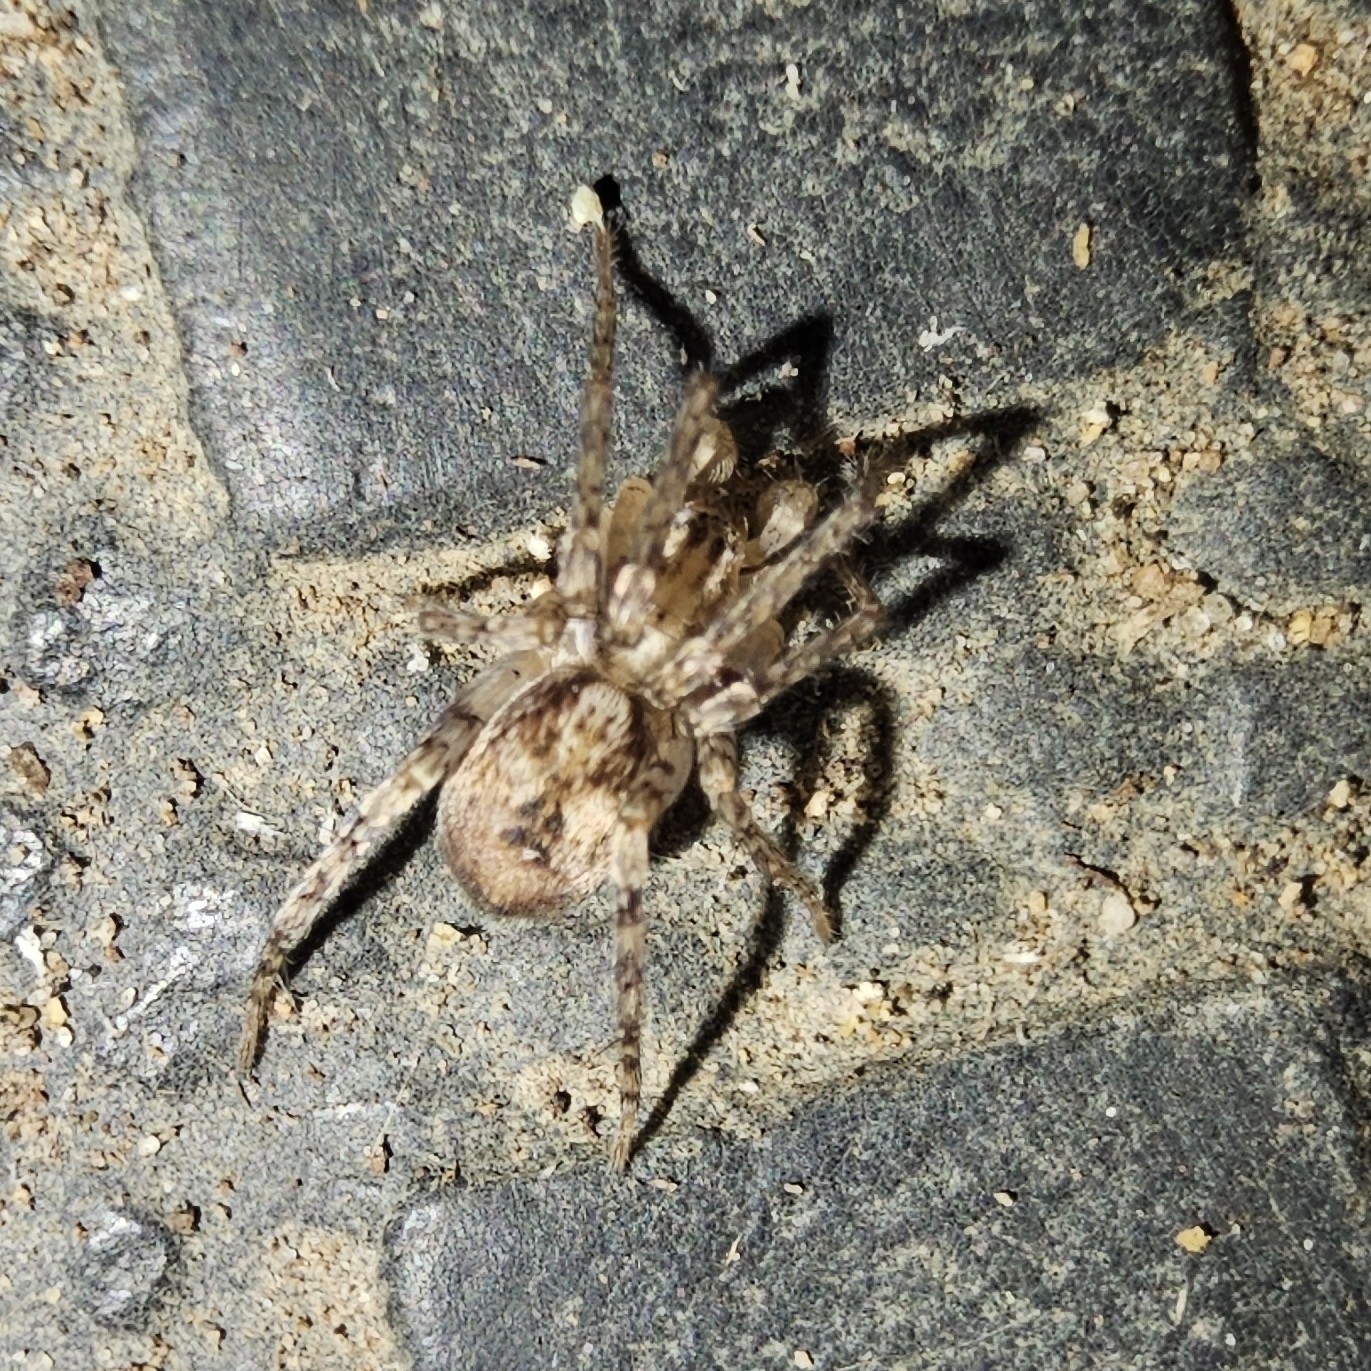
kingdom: Animalia
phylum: Arthropoda
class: Arachnida
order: Araneae
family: Anyphaenidae
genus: Anyphaena
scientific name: Anyphaena accentuata
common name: Buzzing spider
